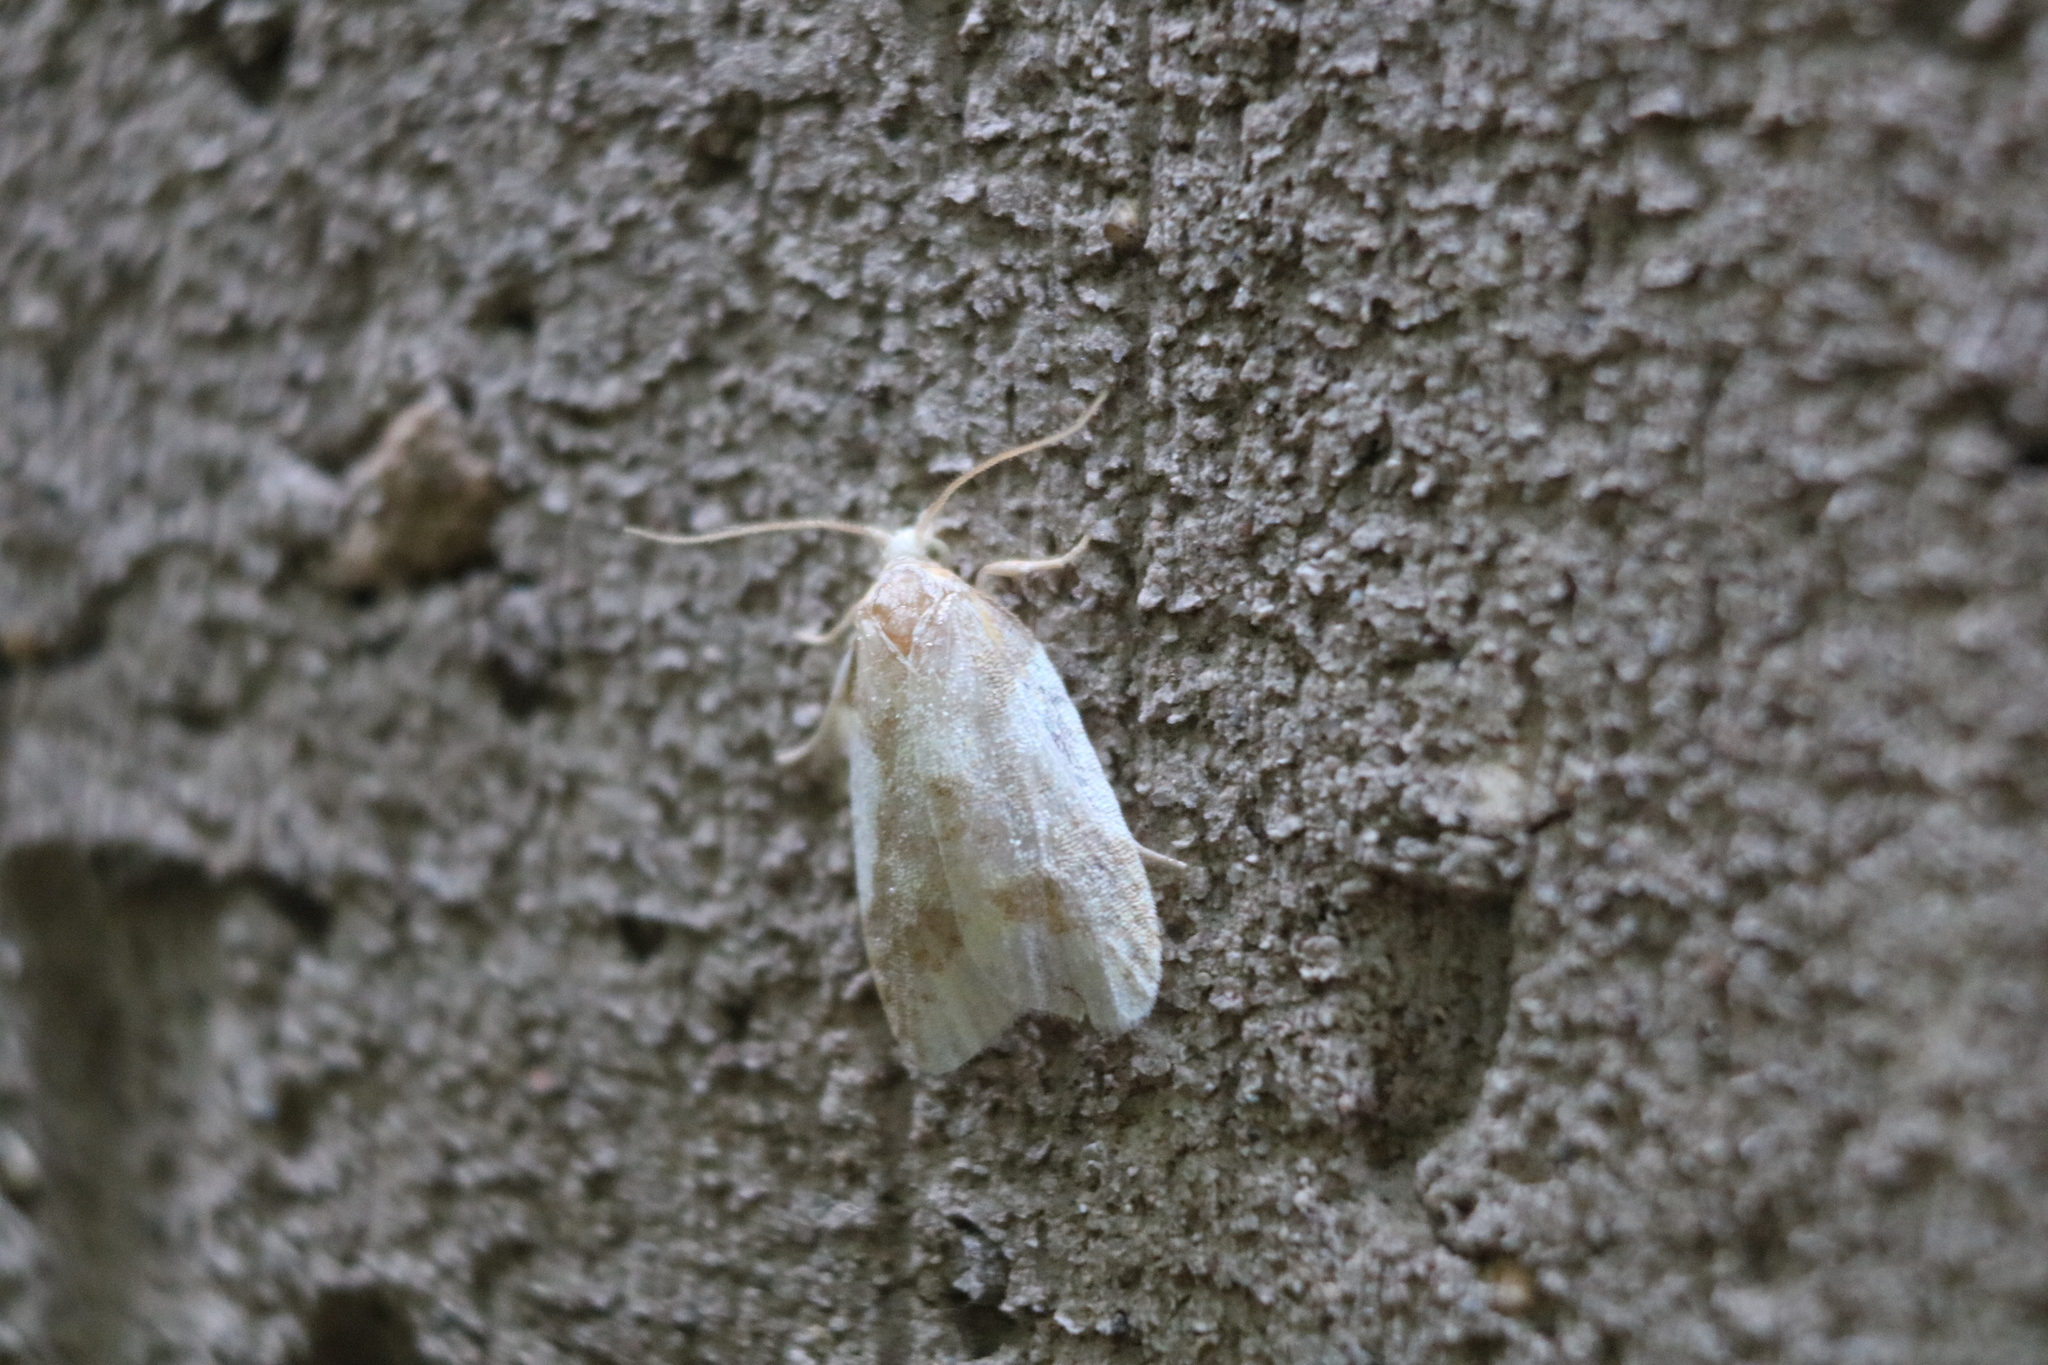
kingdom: Animalia
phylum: Arthropoda
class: Insecta
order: Lepidoptera
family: Tortricidae
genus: Sparganothis
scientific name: Sparganothis pulcherrimana
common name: Beautiful sparganothis
